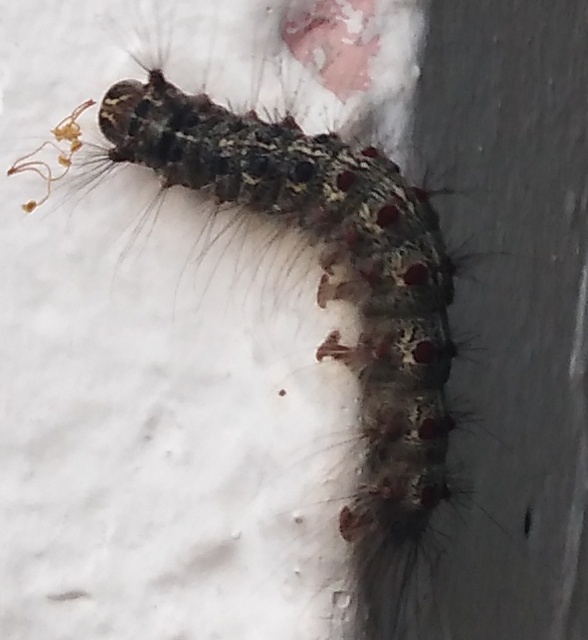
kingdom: Animalia
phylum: Arthropoda
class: Insecta
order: Lepidoptera
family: Erebidae
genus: Lymantria
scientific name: Lymantria dispar
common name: Gypsy moth
